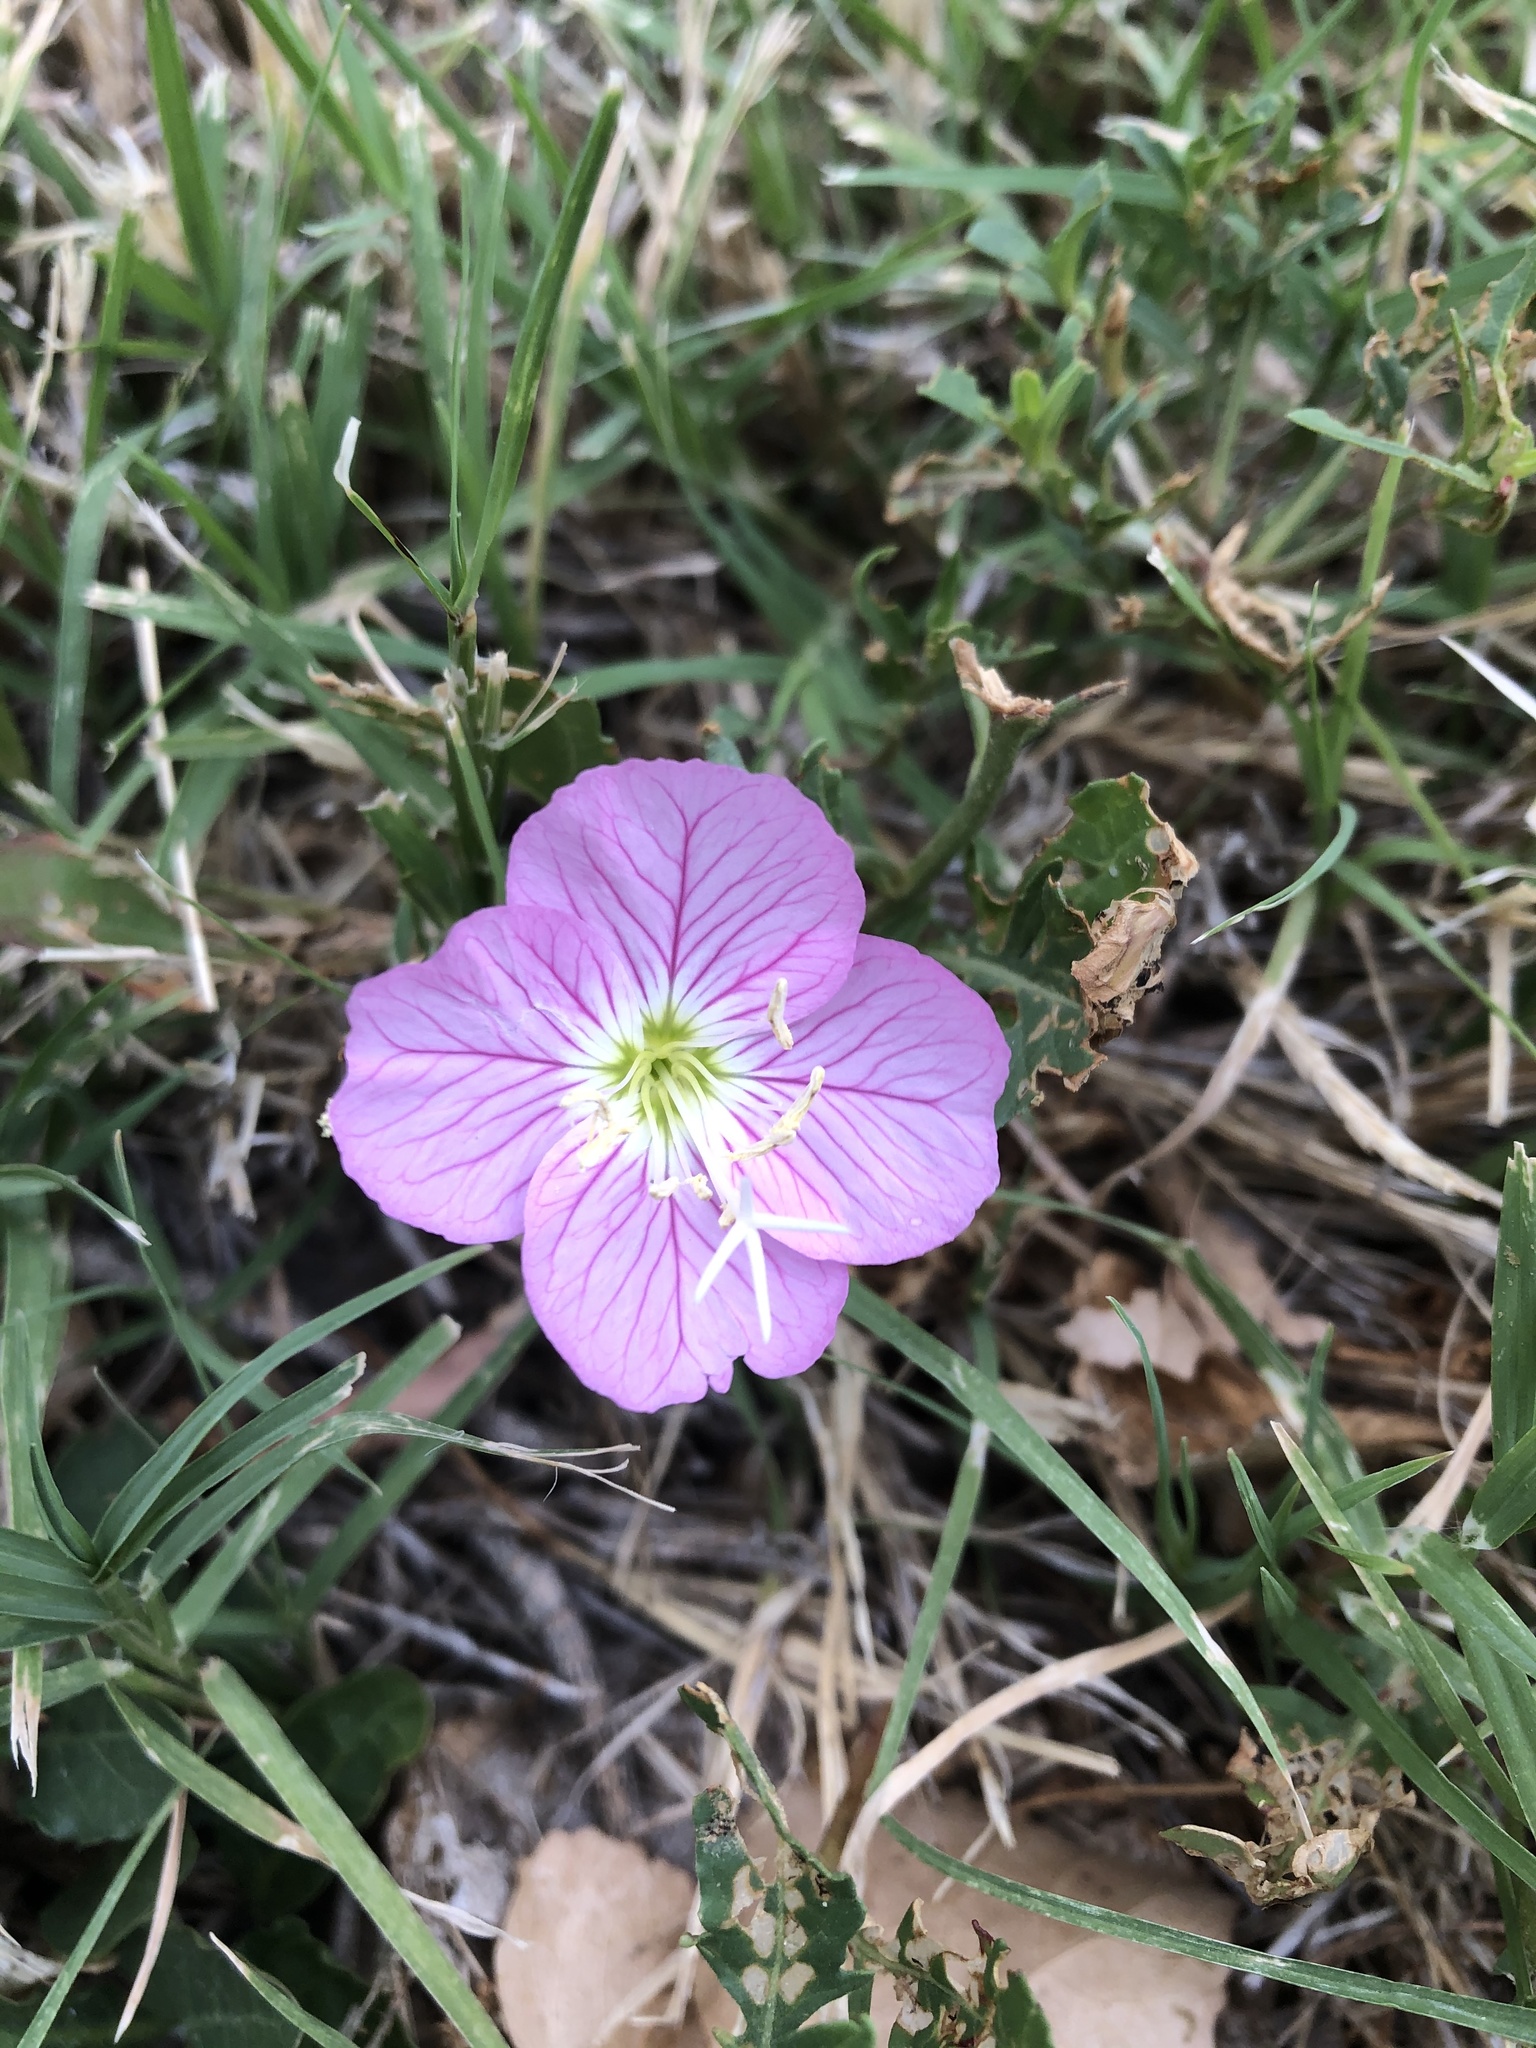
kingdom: Plantae
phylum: Tracheophyta
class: Magnoliopsida
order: Myrtales
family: Onagraceae
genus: Oenothera
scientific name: Oenothera speciosa
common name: White evening-primrose
